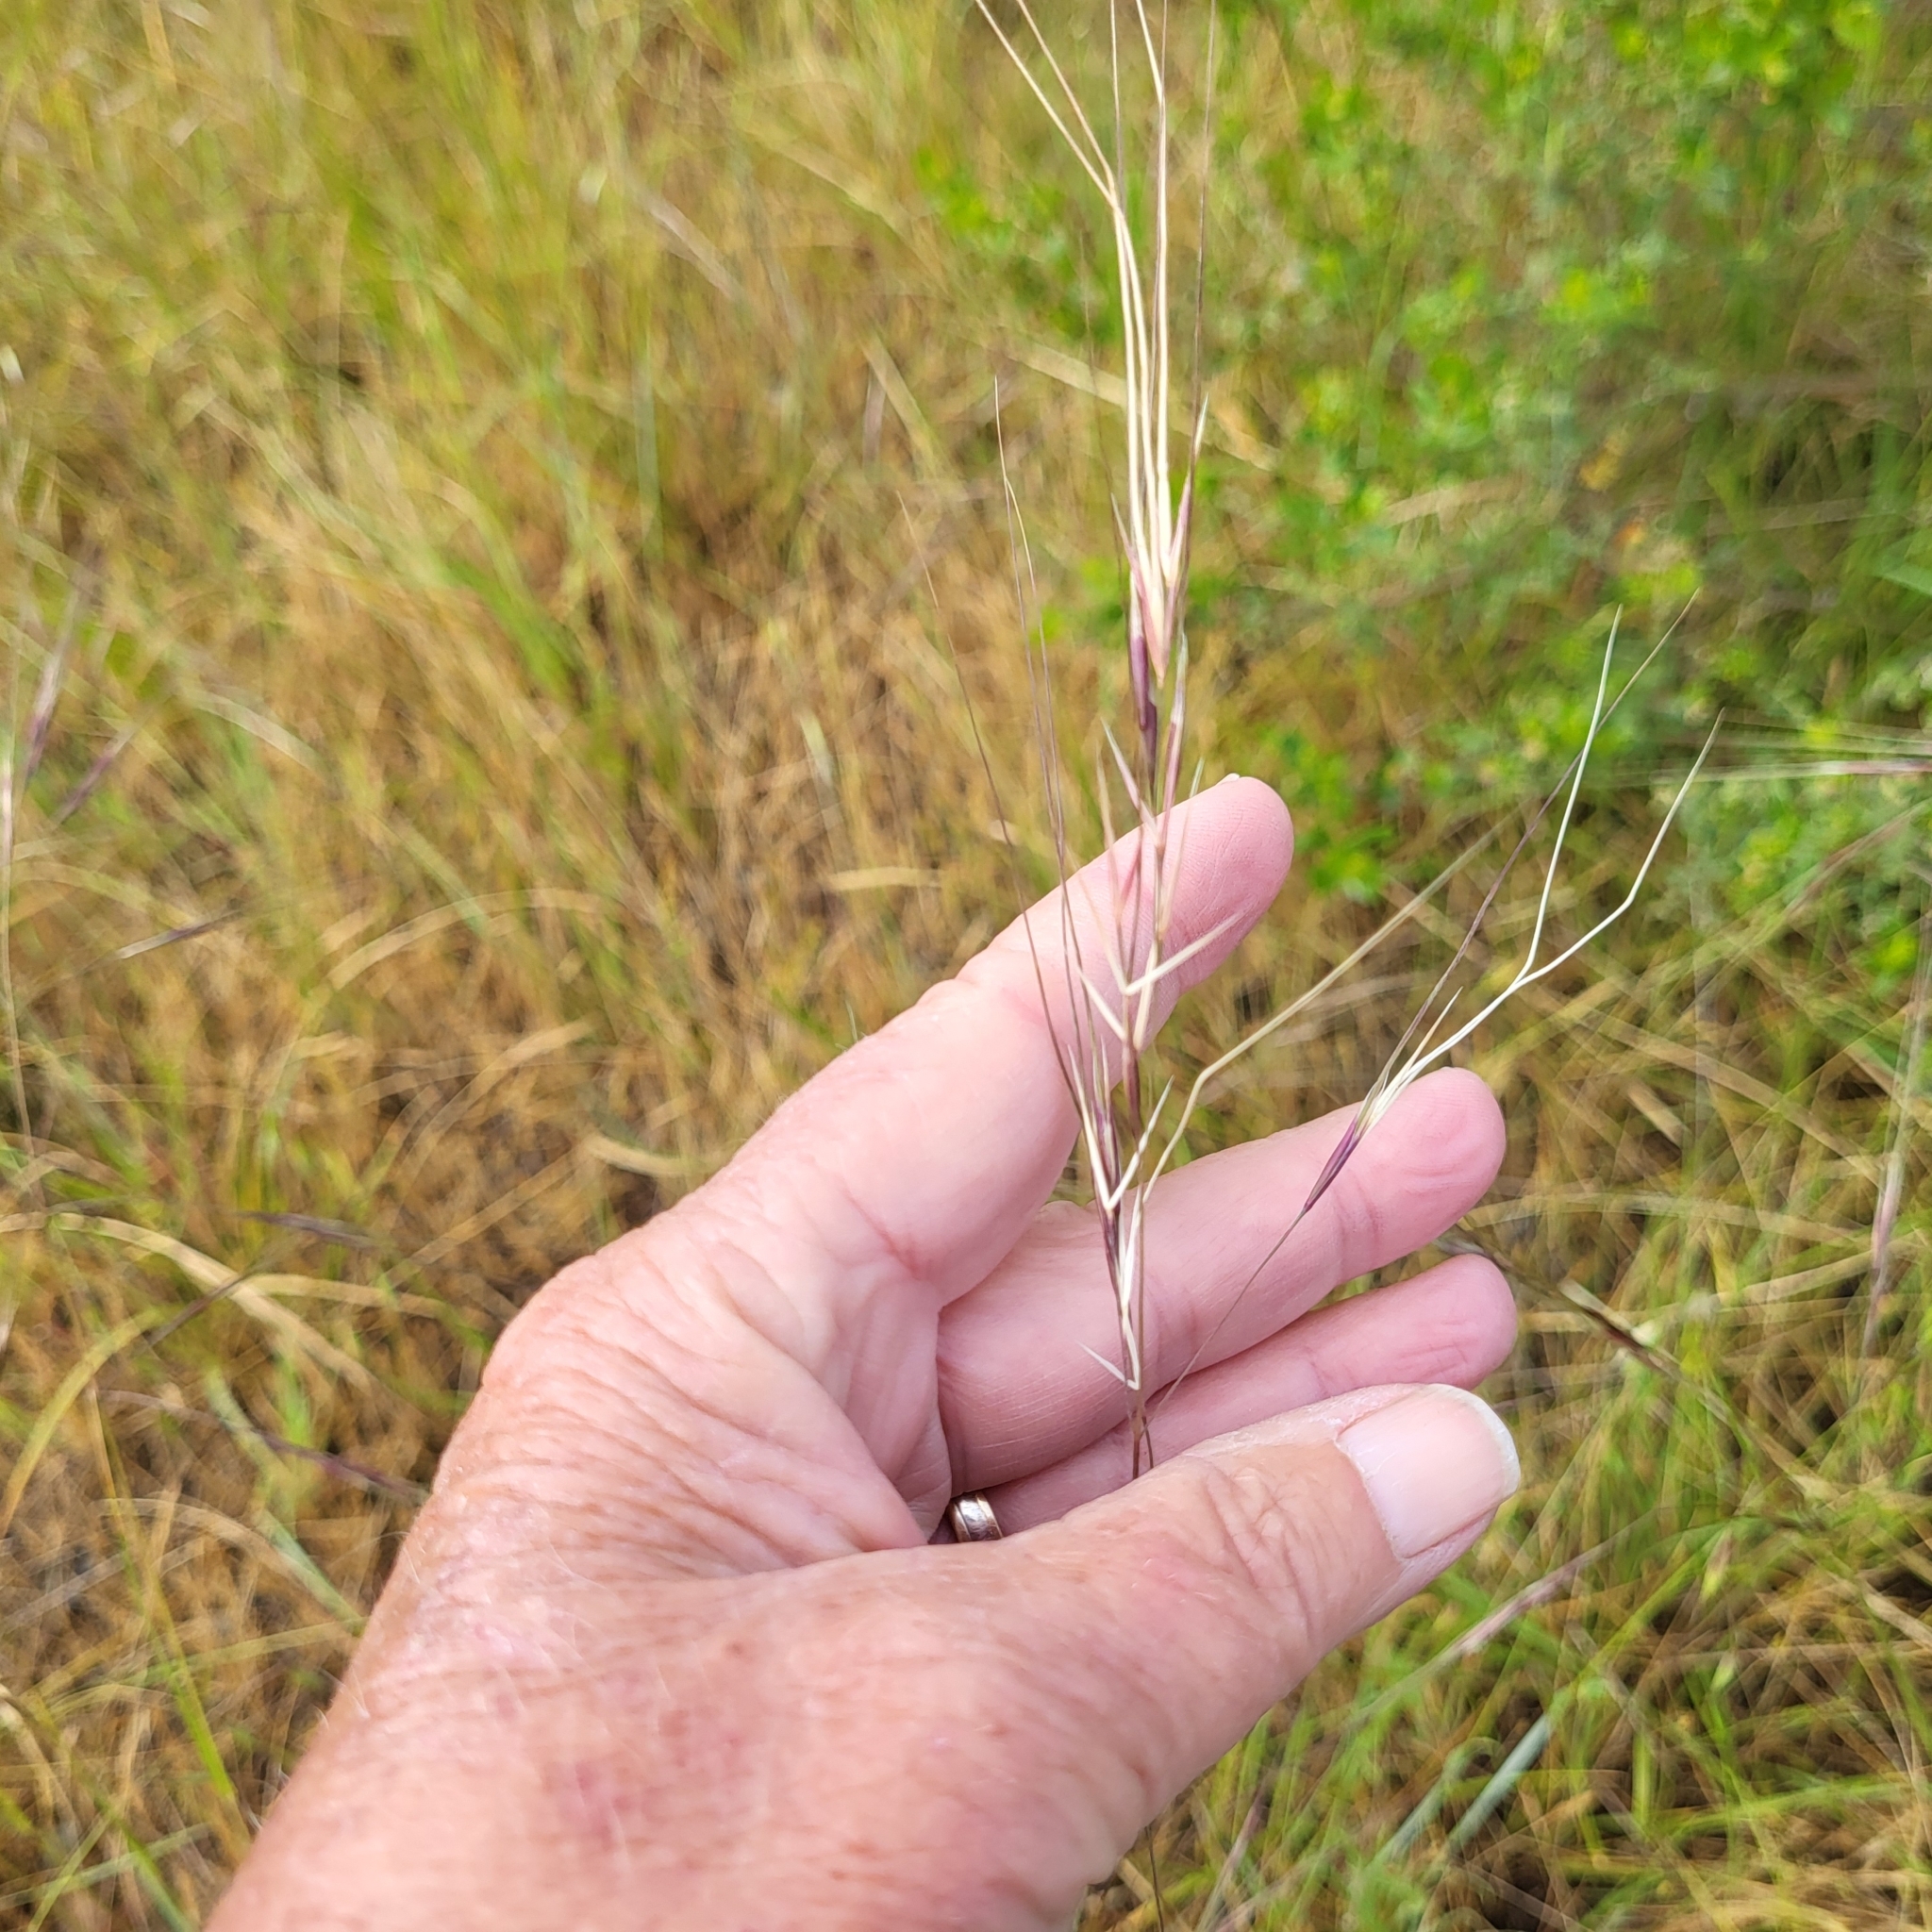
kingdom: Plantae
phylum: Tracheophyta
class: Liliopsida
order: Poales
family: Poaceae
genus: Nassella
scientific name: Nassella pulchra
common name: Purple needlegrass
